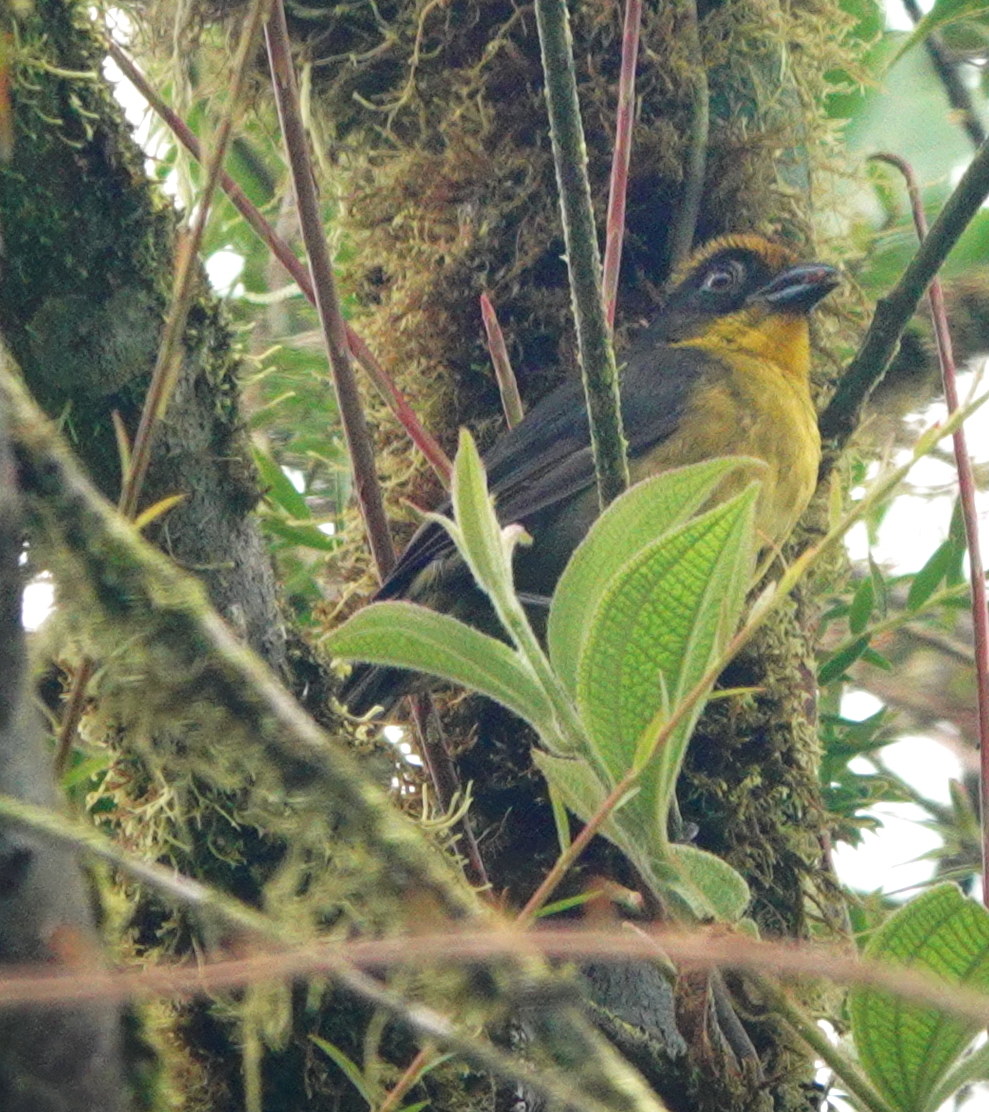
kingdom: Animalia
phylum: Chordata
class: Aves
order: Passeriformes
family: Passerellidae
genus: Atlapetes
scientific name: Atlapetes tricolor
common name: Tricolored brushfinch
